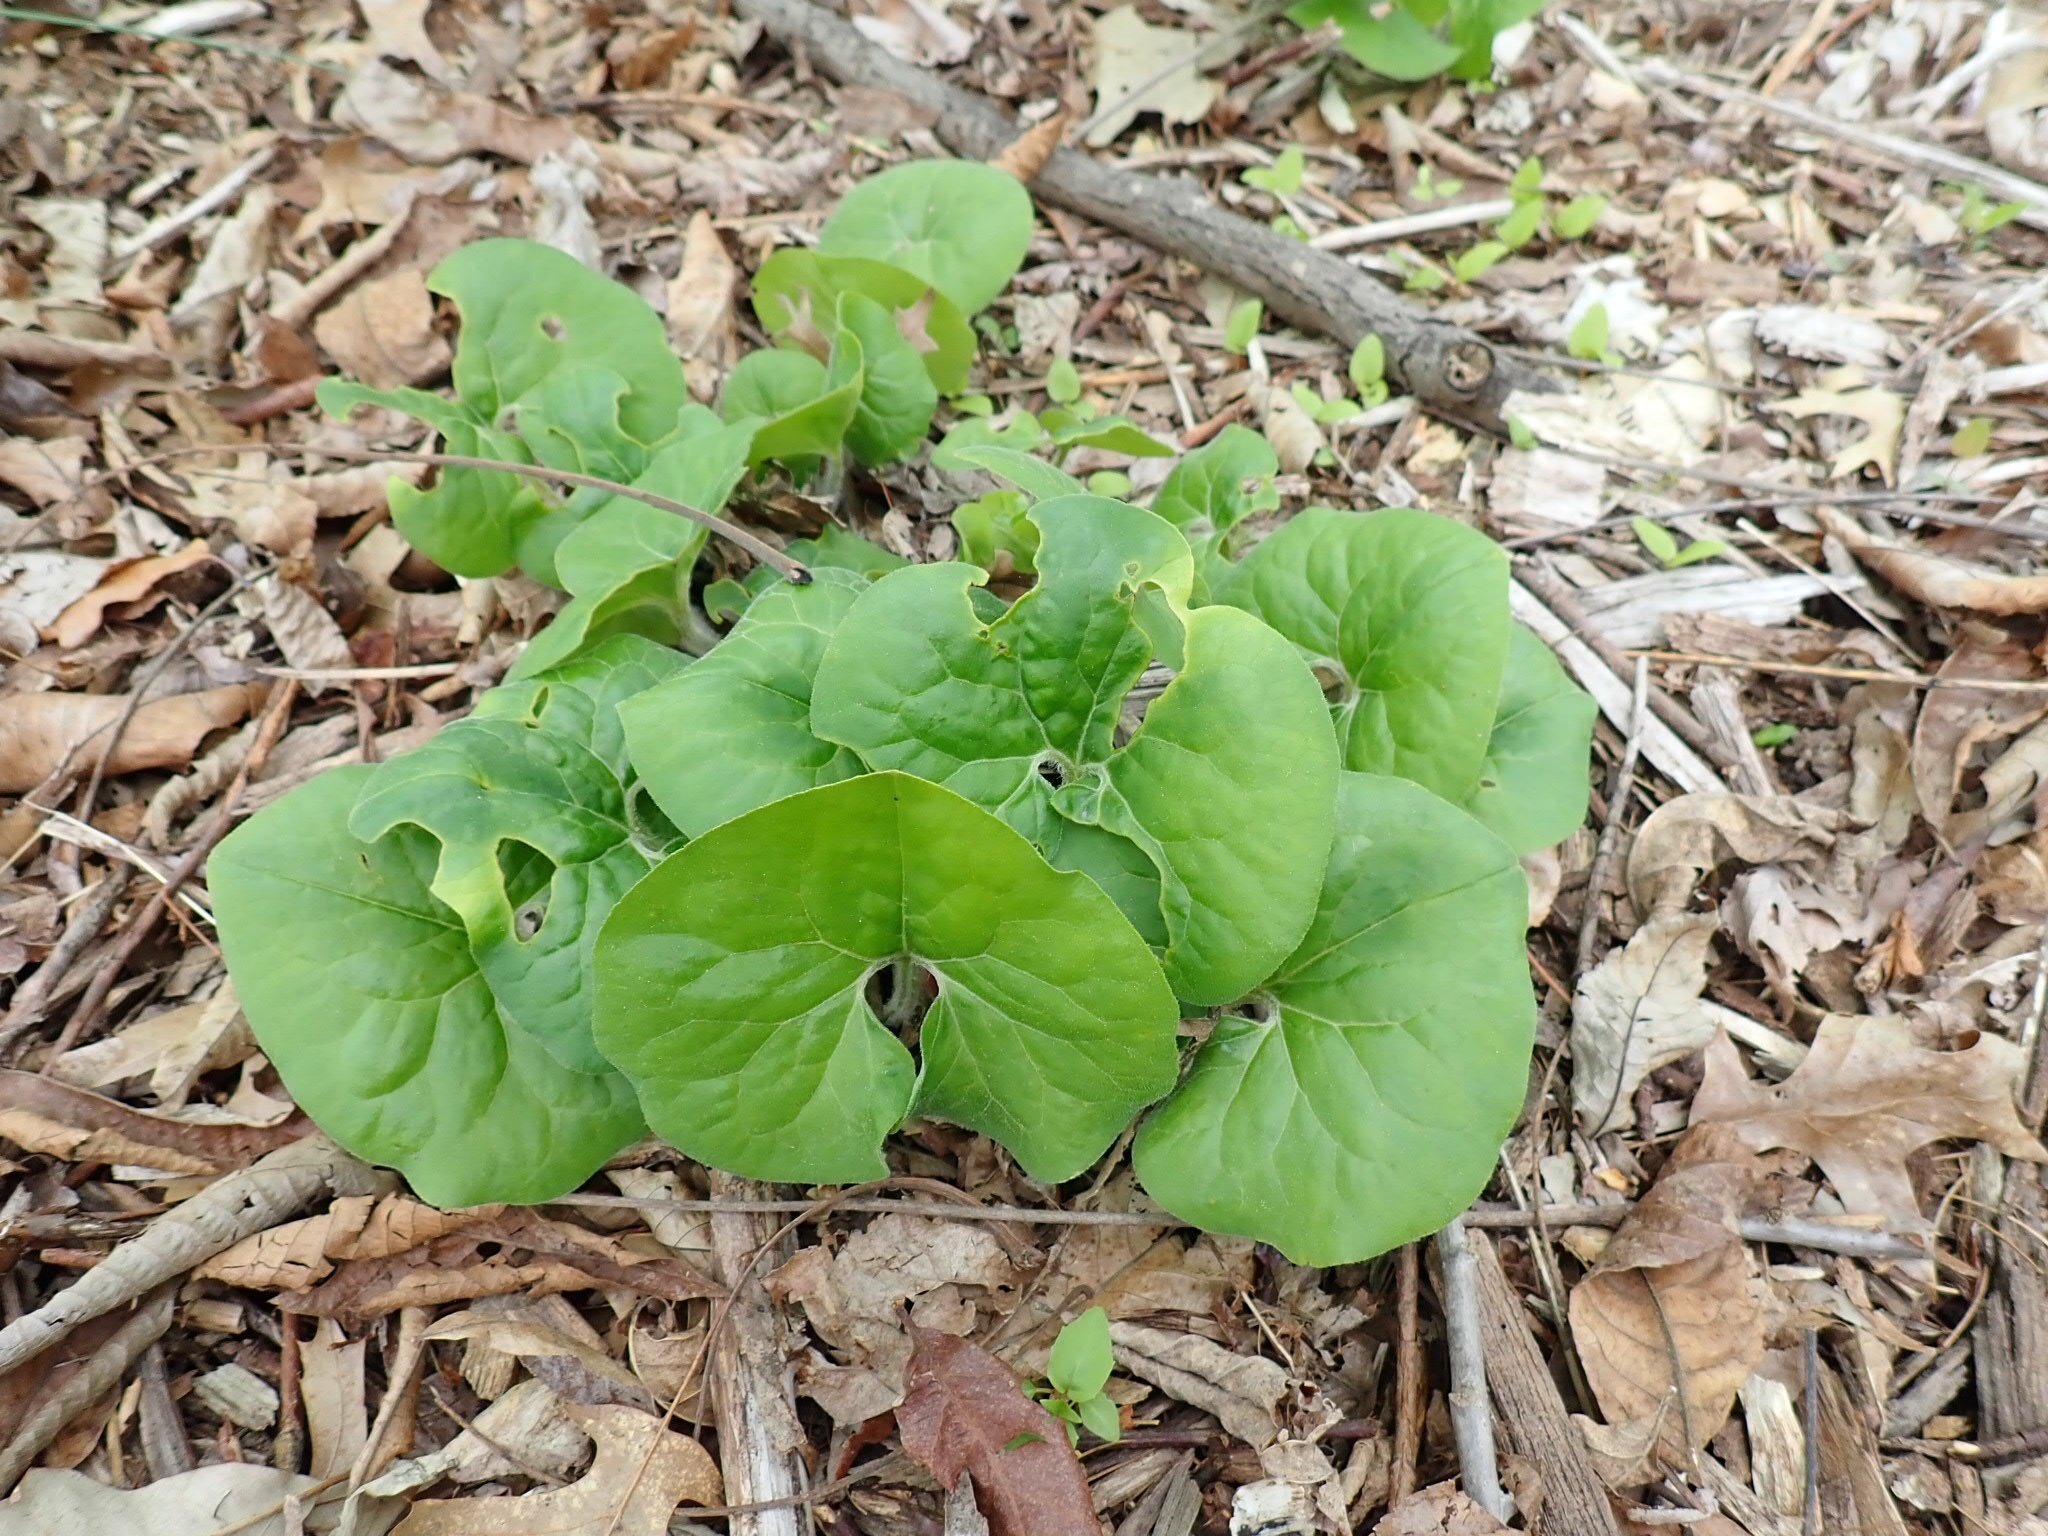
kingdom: Plantae
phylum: Tracheophyta
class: Magnoliopsida
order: Piperales
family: Aristolochiaceae
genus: Asarum
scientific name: Asarum canadense
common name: Wild ginger
